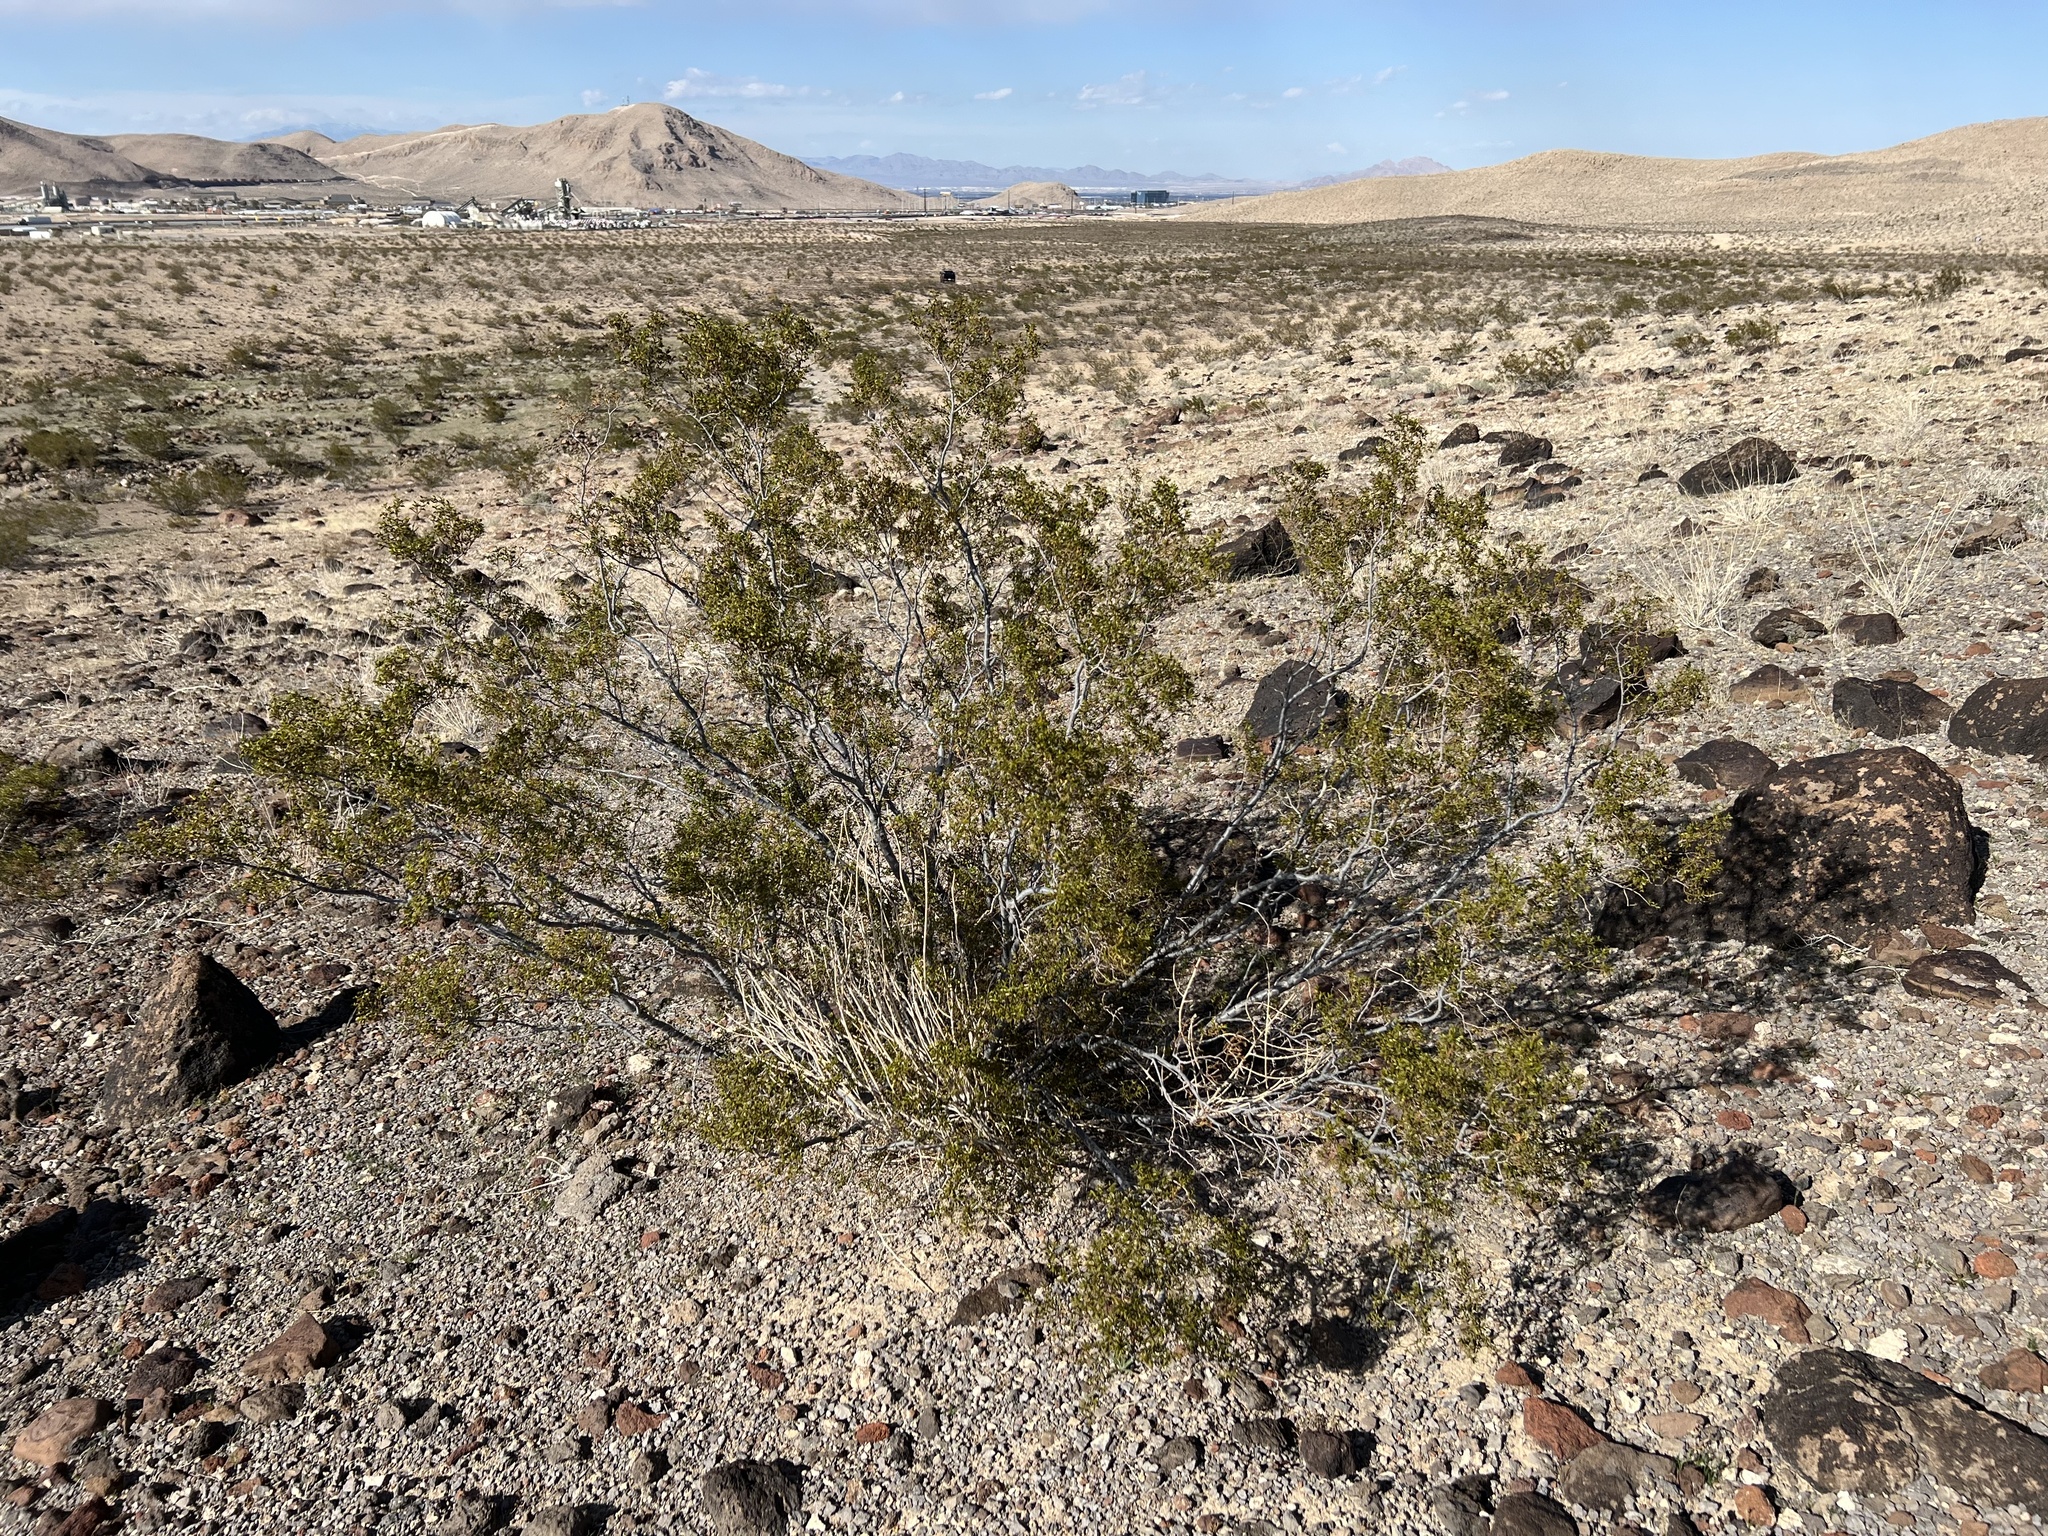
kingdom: Plantae
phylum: Tracheophyta
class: Magnoliopsida
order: Zygophyllales
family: Zygophyllaceae
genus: Larrea
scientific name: Larrea tridentata
